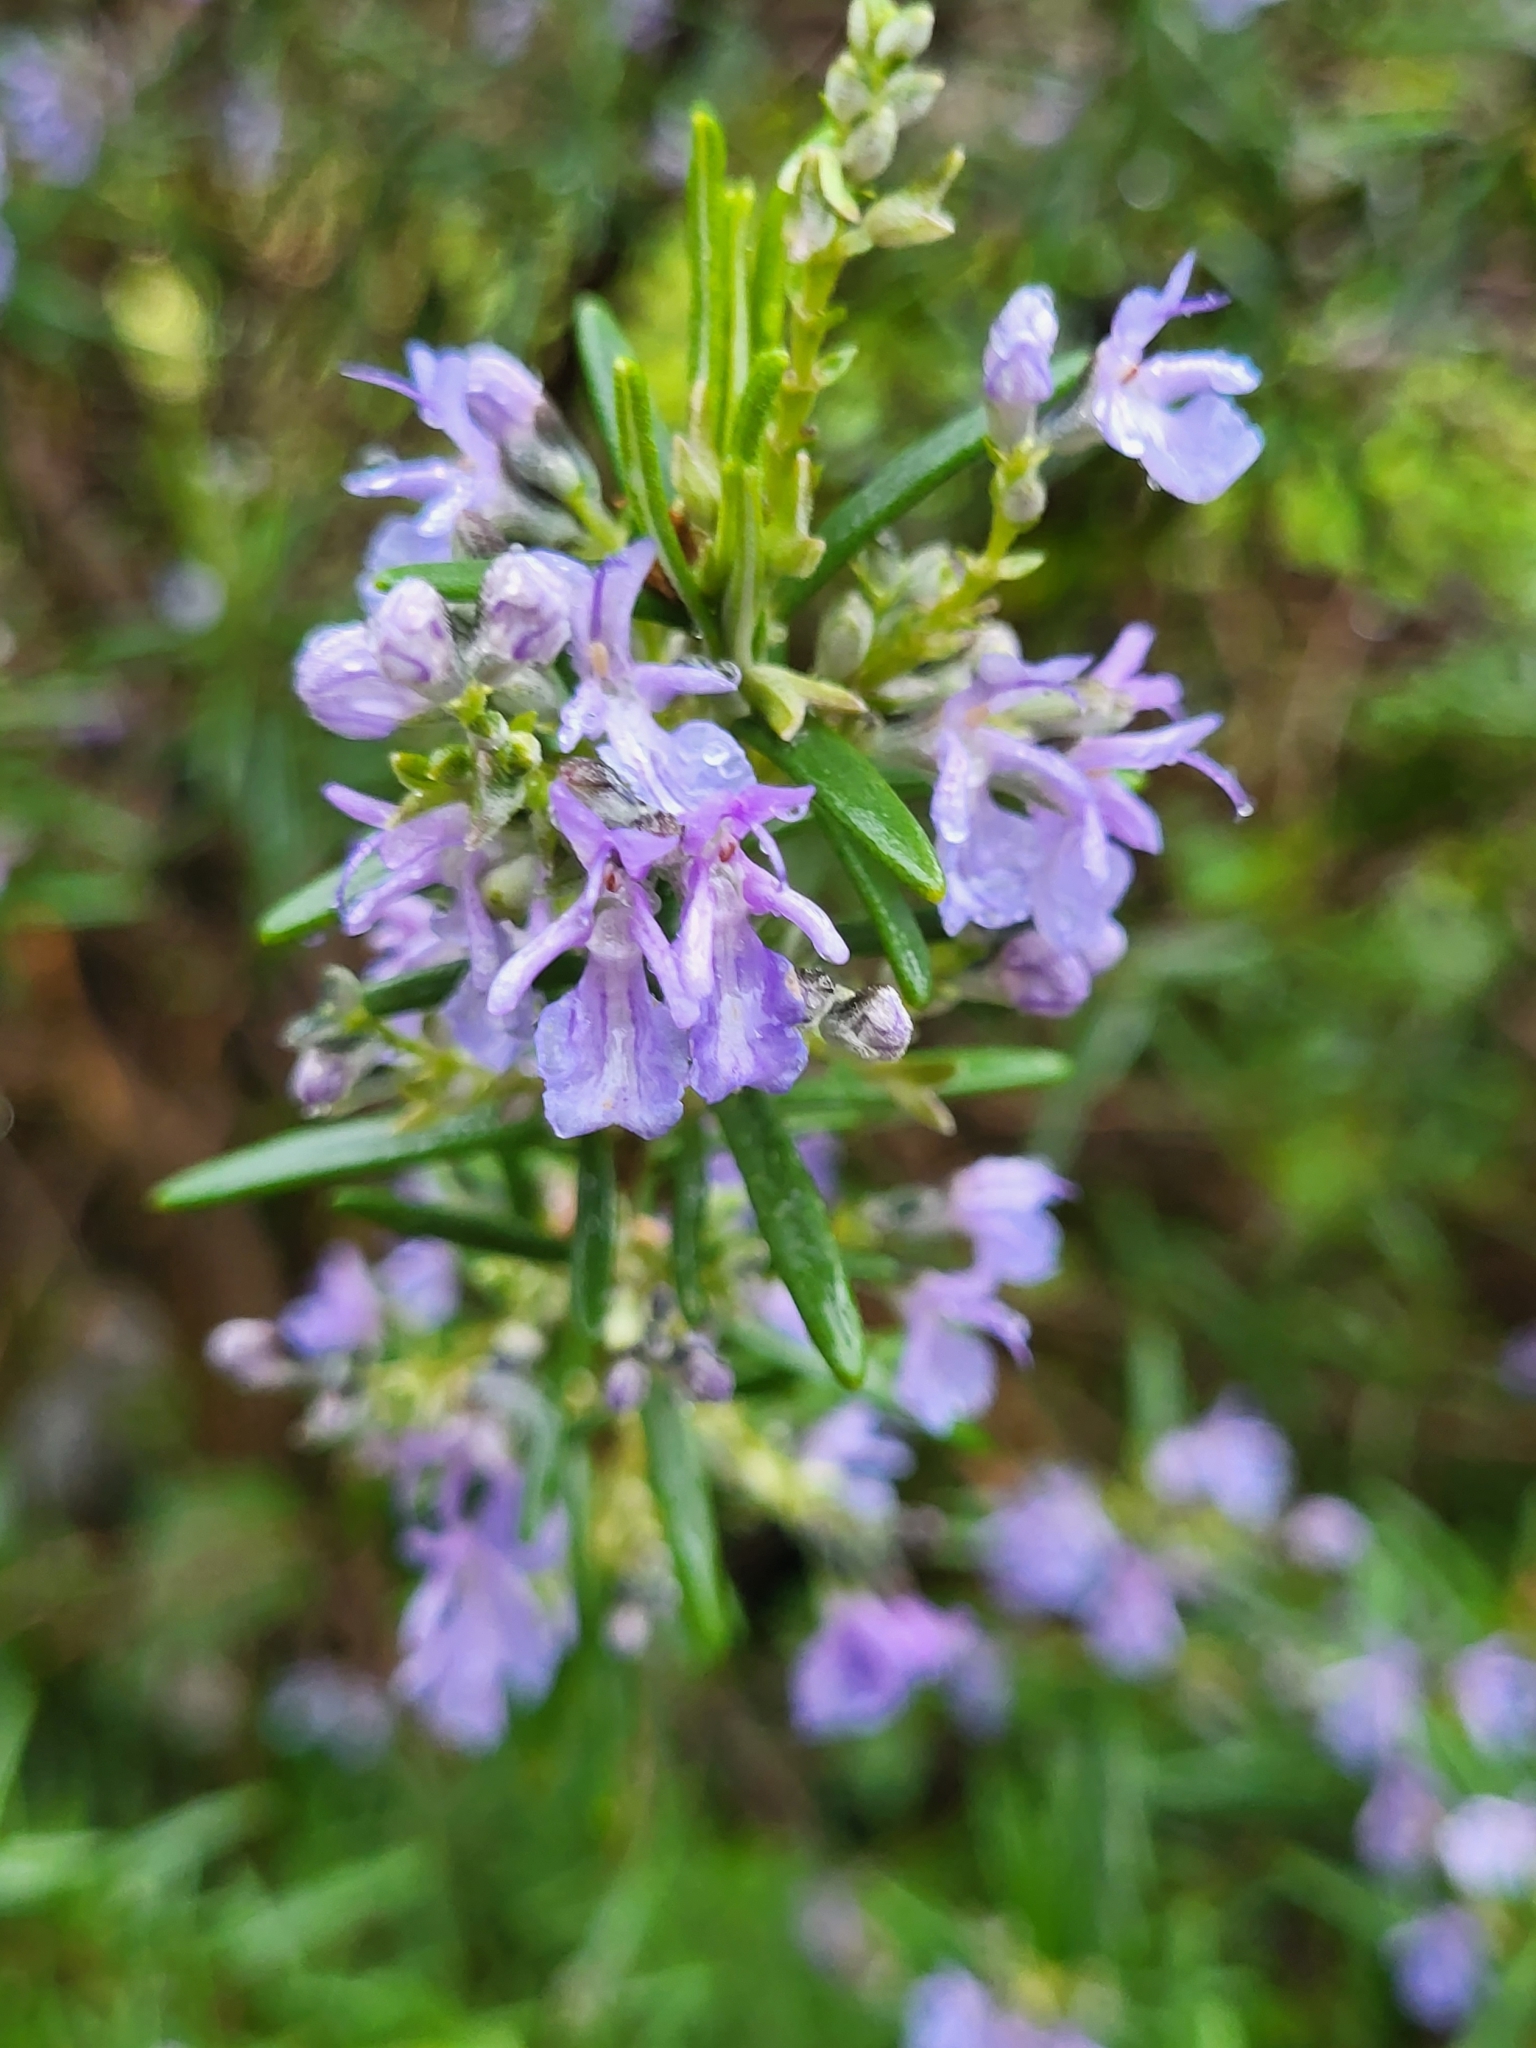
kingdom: Plantae
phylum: Tracheophyta
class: Magnoliopsida
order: Lamiales
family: Lamiaceae
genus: Salvia
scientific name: Salvia rosmarinus
